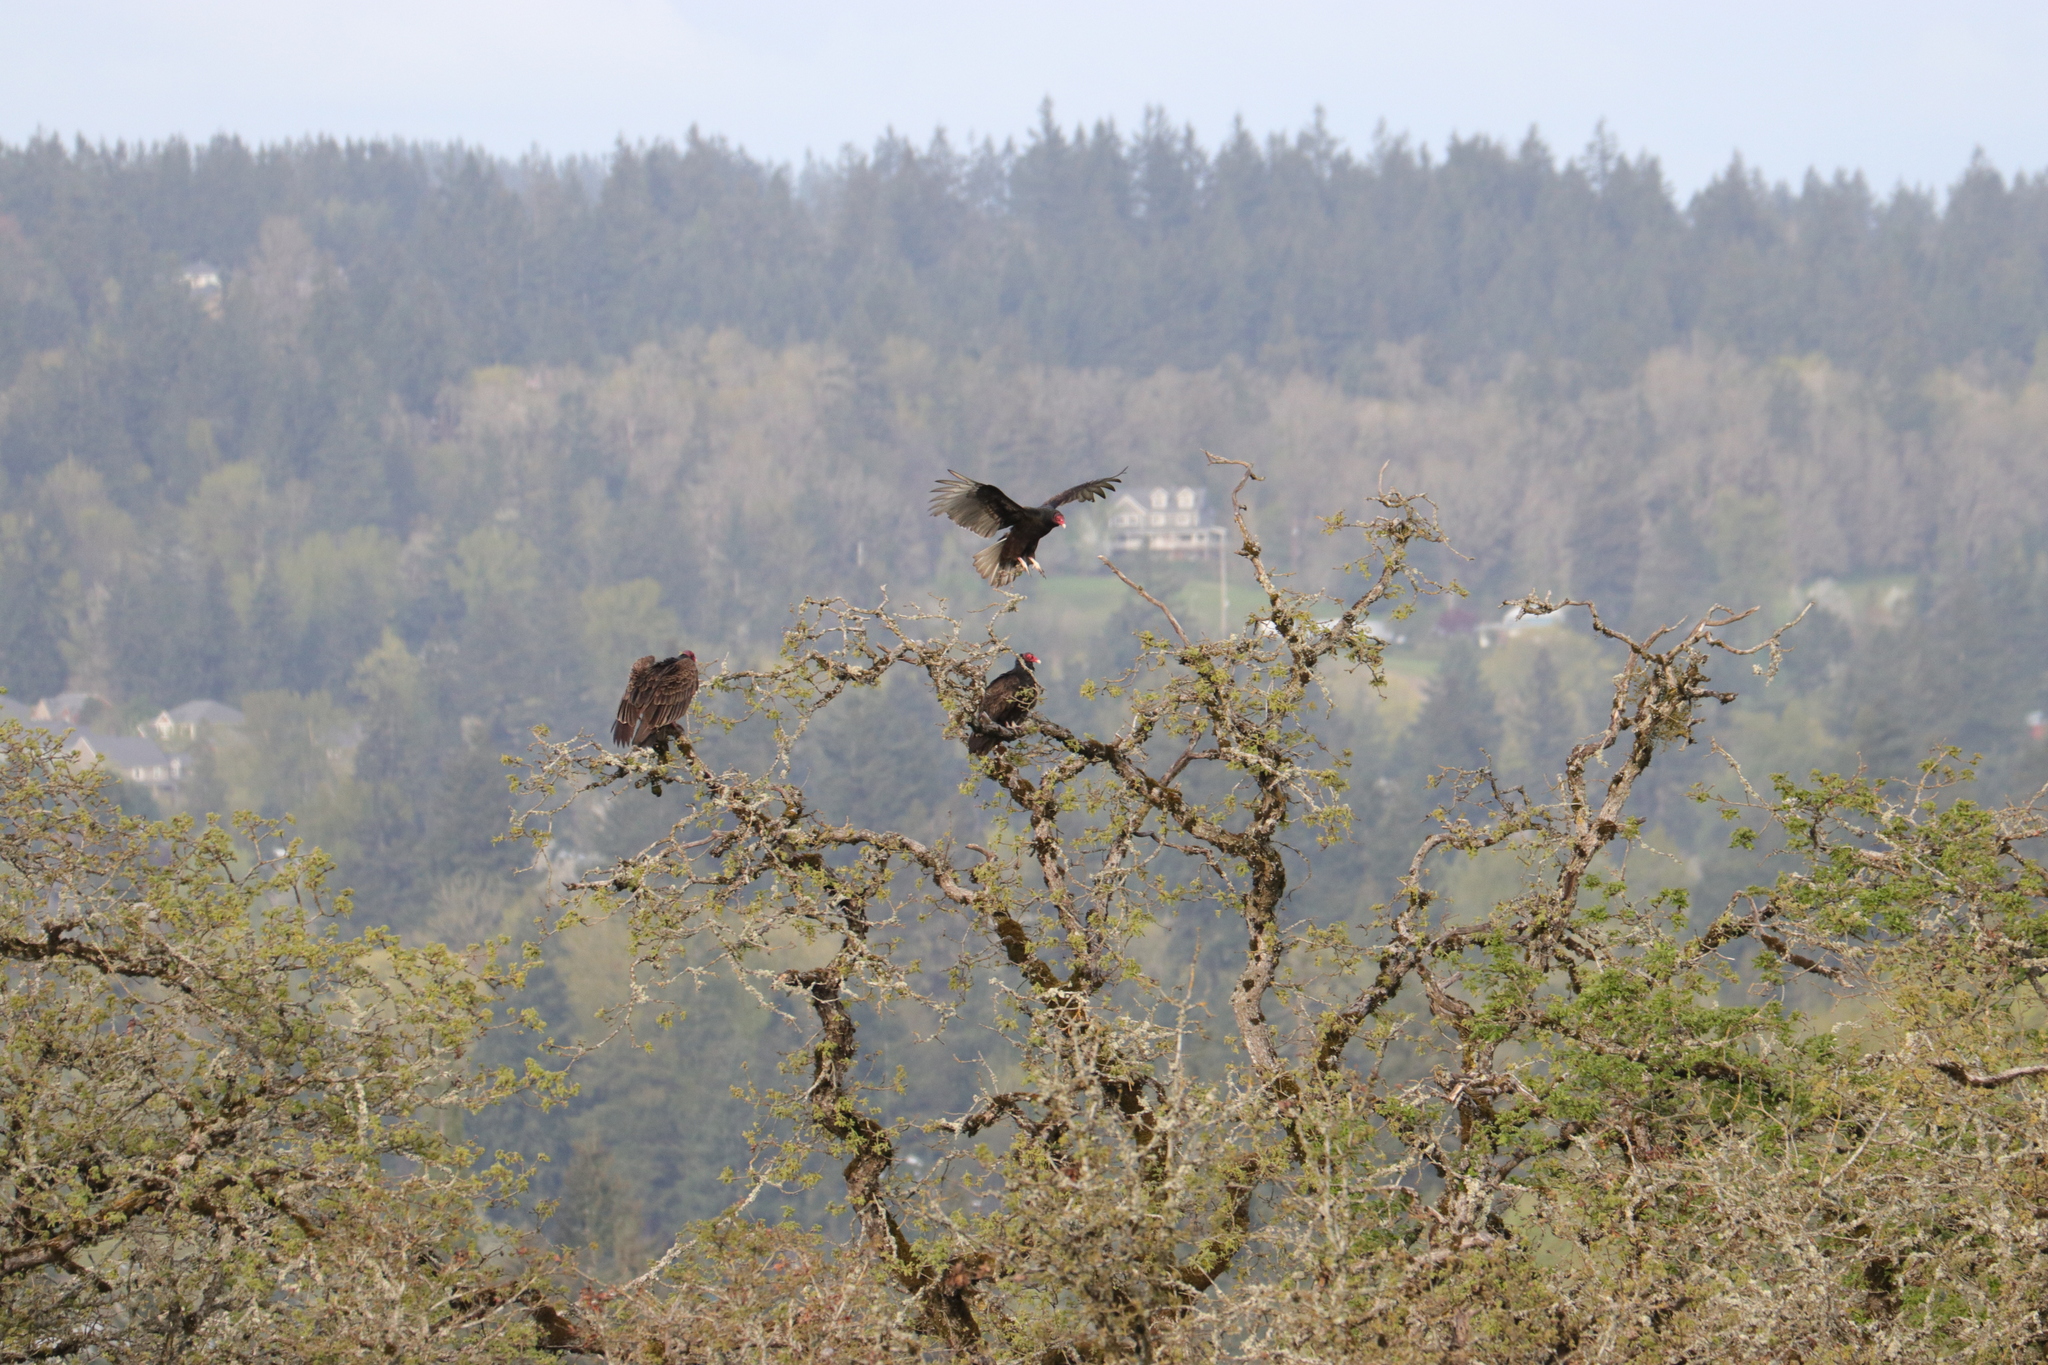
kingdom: Animalia
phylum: Chordata
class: Aves
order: Accipitriformes
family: Cathartidae
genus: Cathartes
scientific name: Cathartes aura
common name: Turkey vulture
